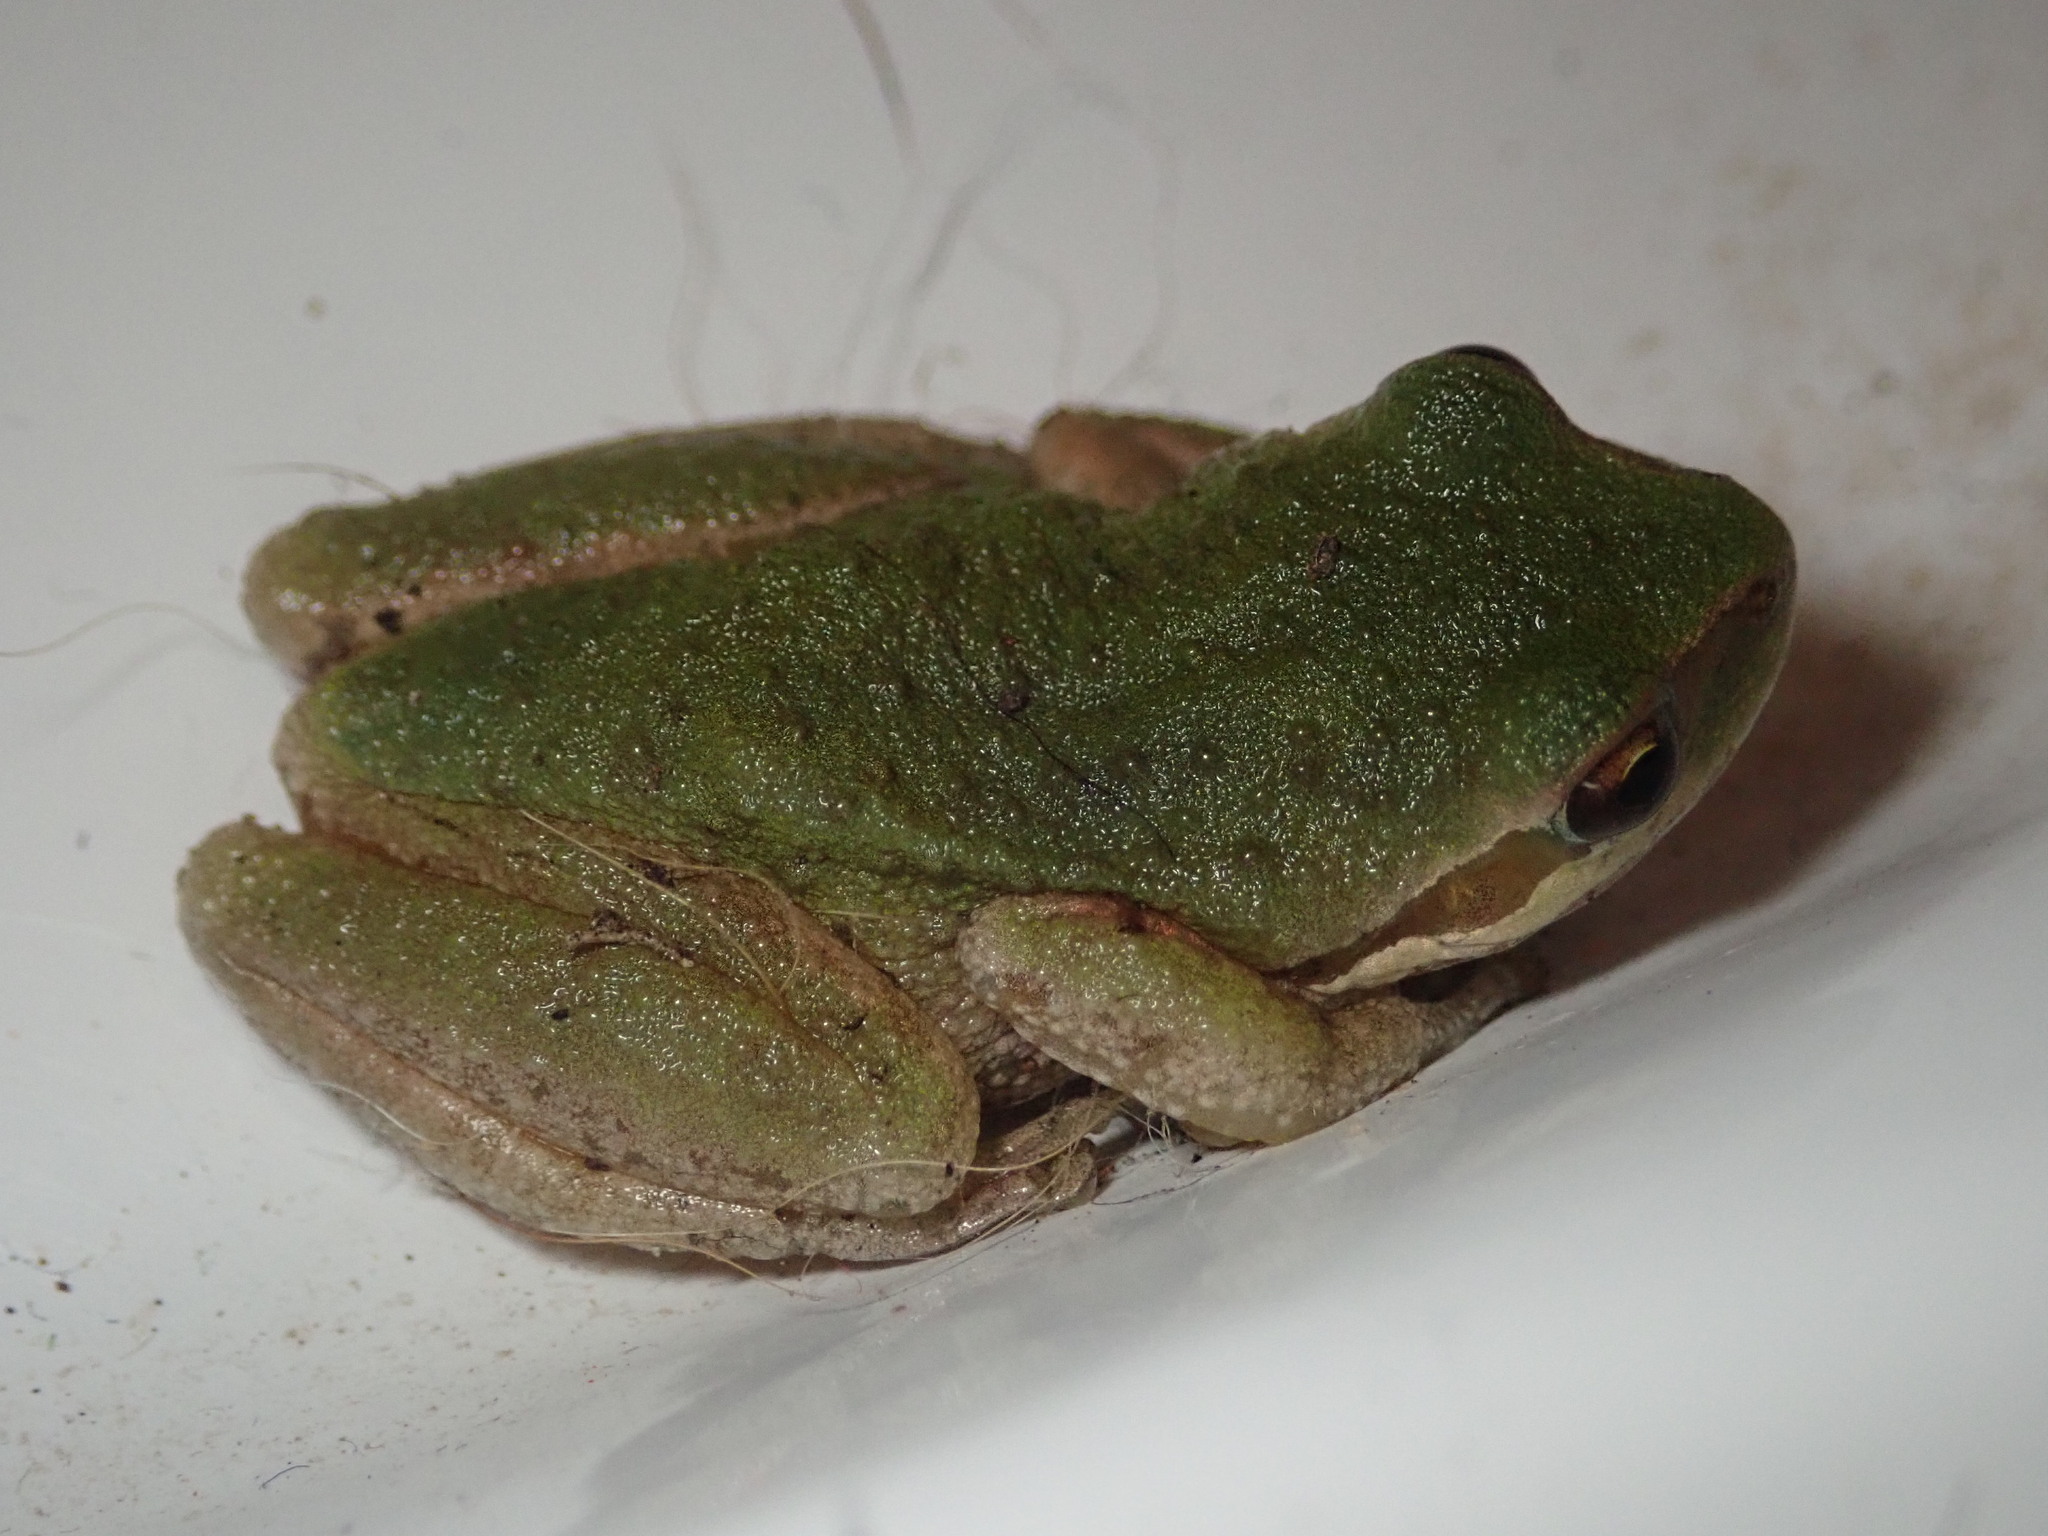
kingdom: Animalia
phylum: Chordata
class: Amphibia
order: Anura
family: Hylidae
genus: Pseudacris
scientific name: Pseudacris regilla
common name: Pacific chorus frog
